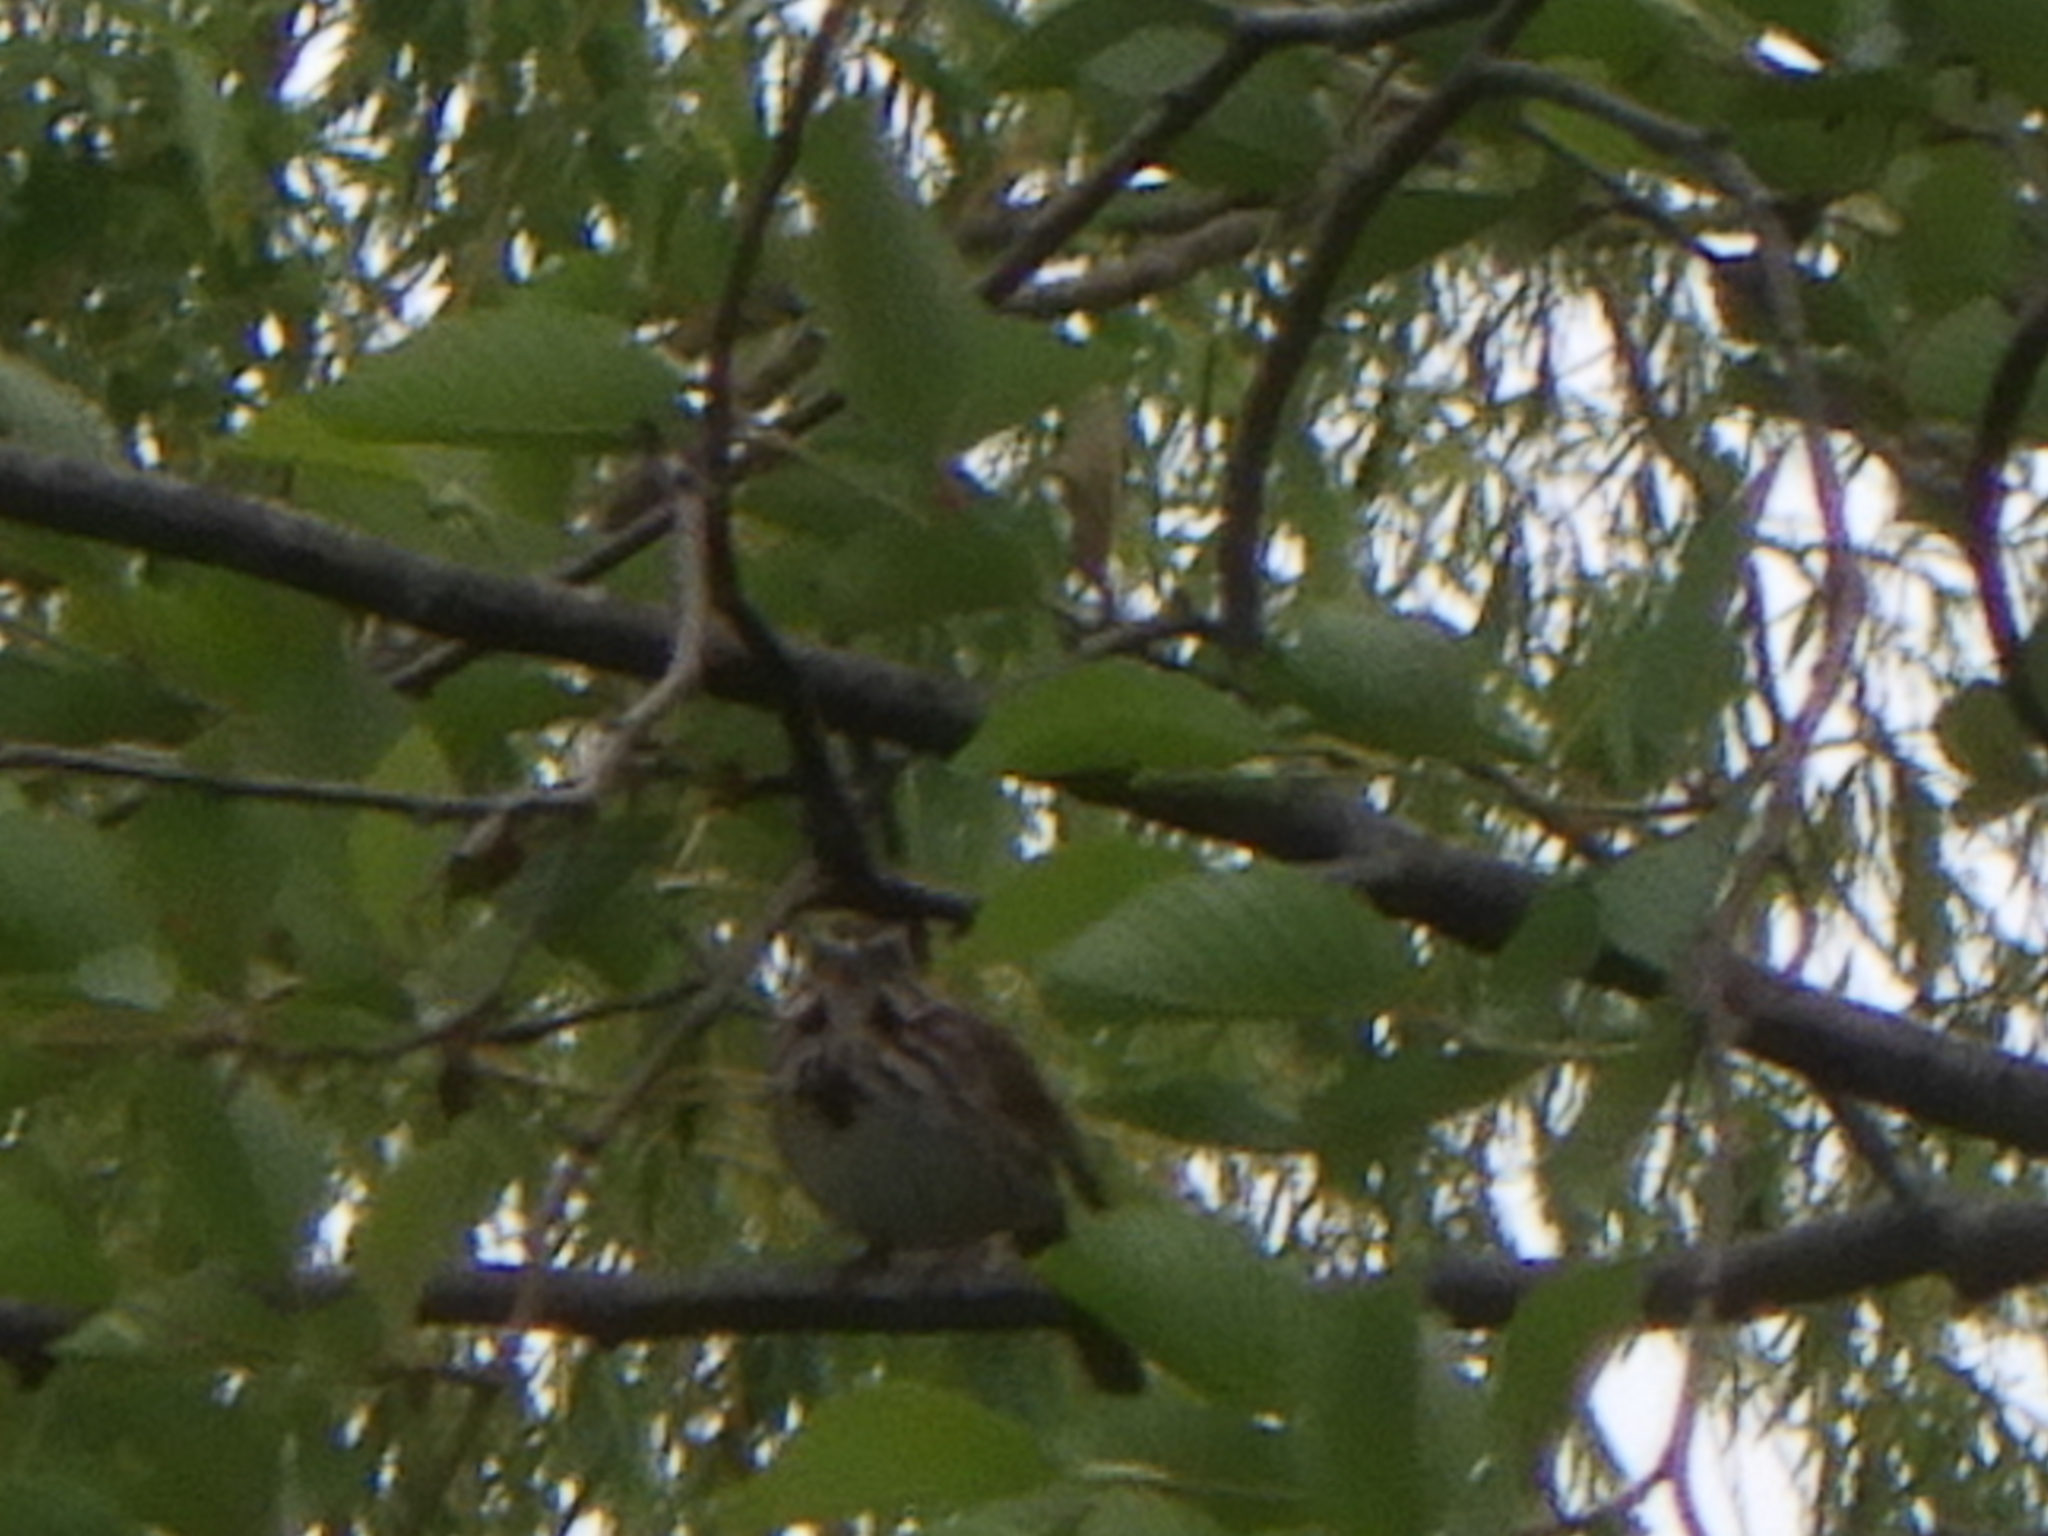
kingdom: Animalia
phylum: Chordata
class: Aves
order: Passeriformes
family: Passerellidae
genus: Melospiza
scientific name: Melospiza melodia
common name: Song sparrow
